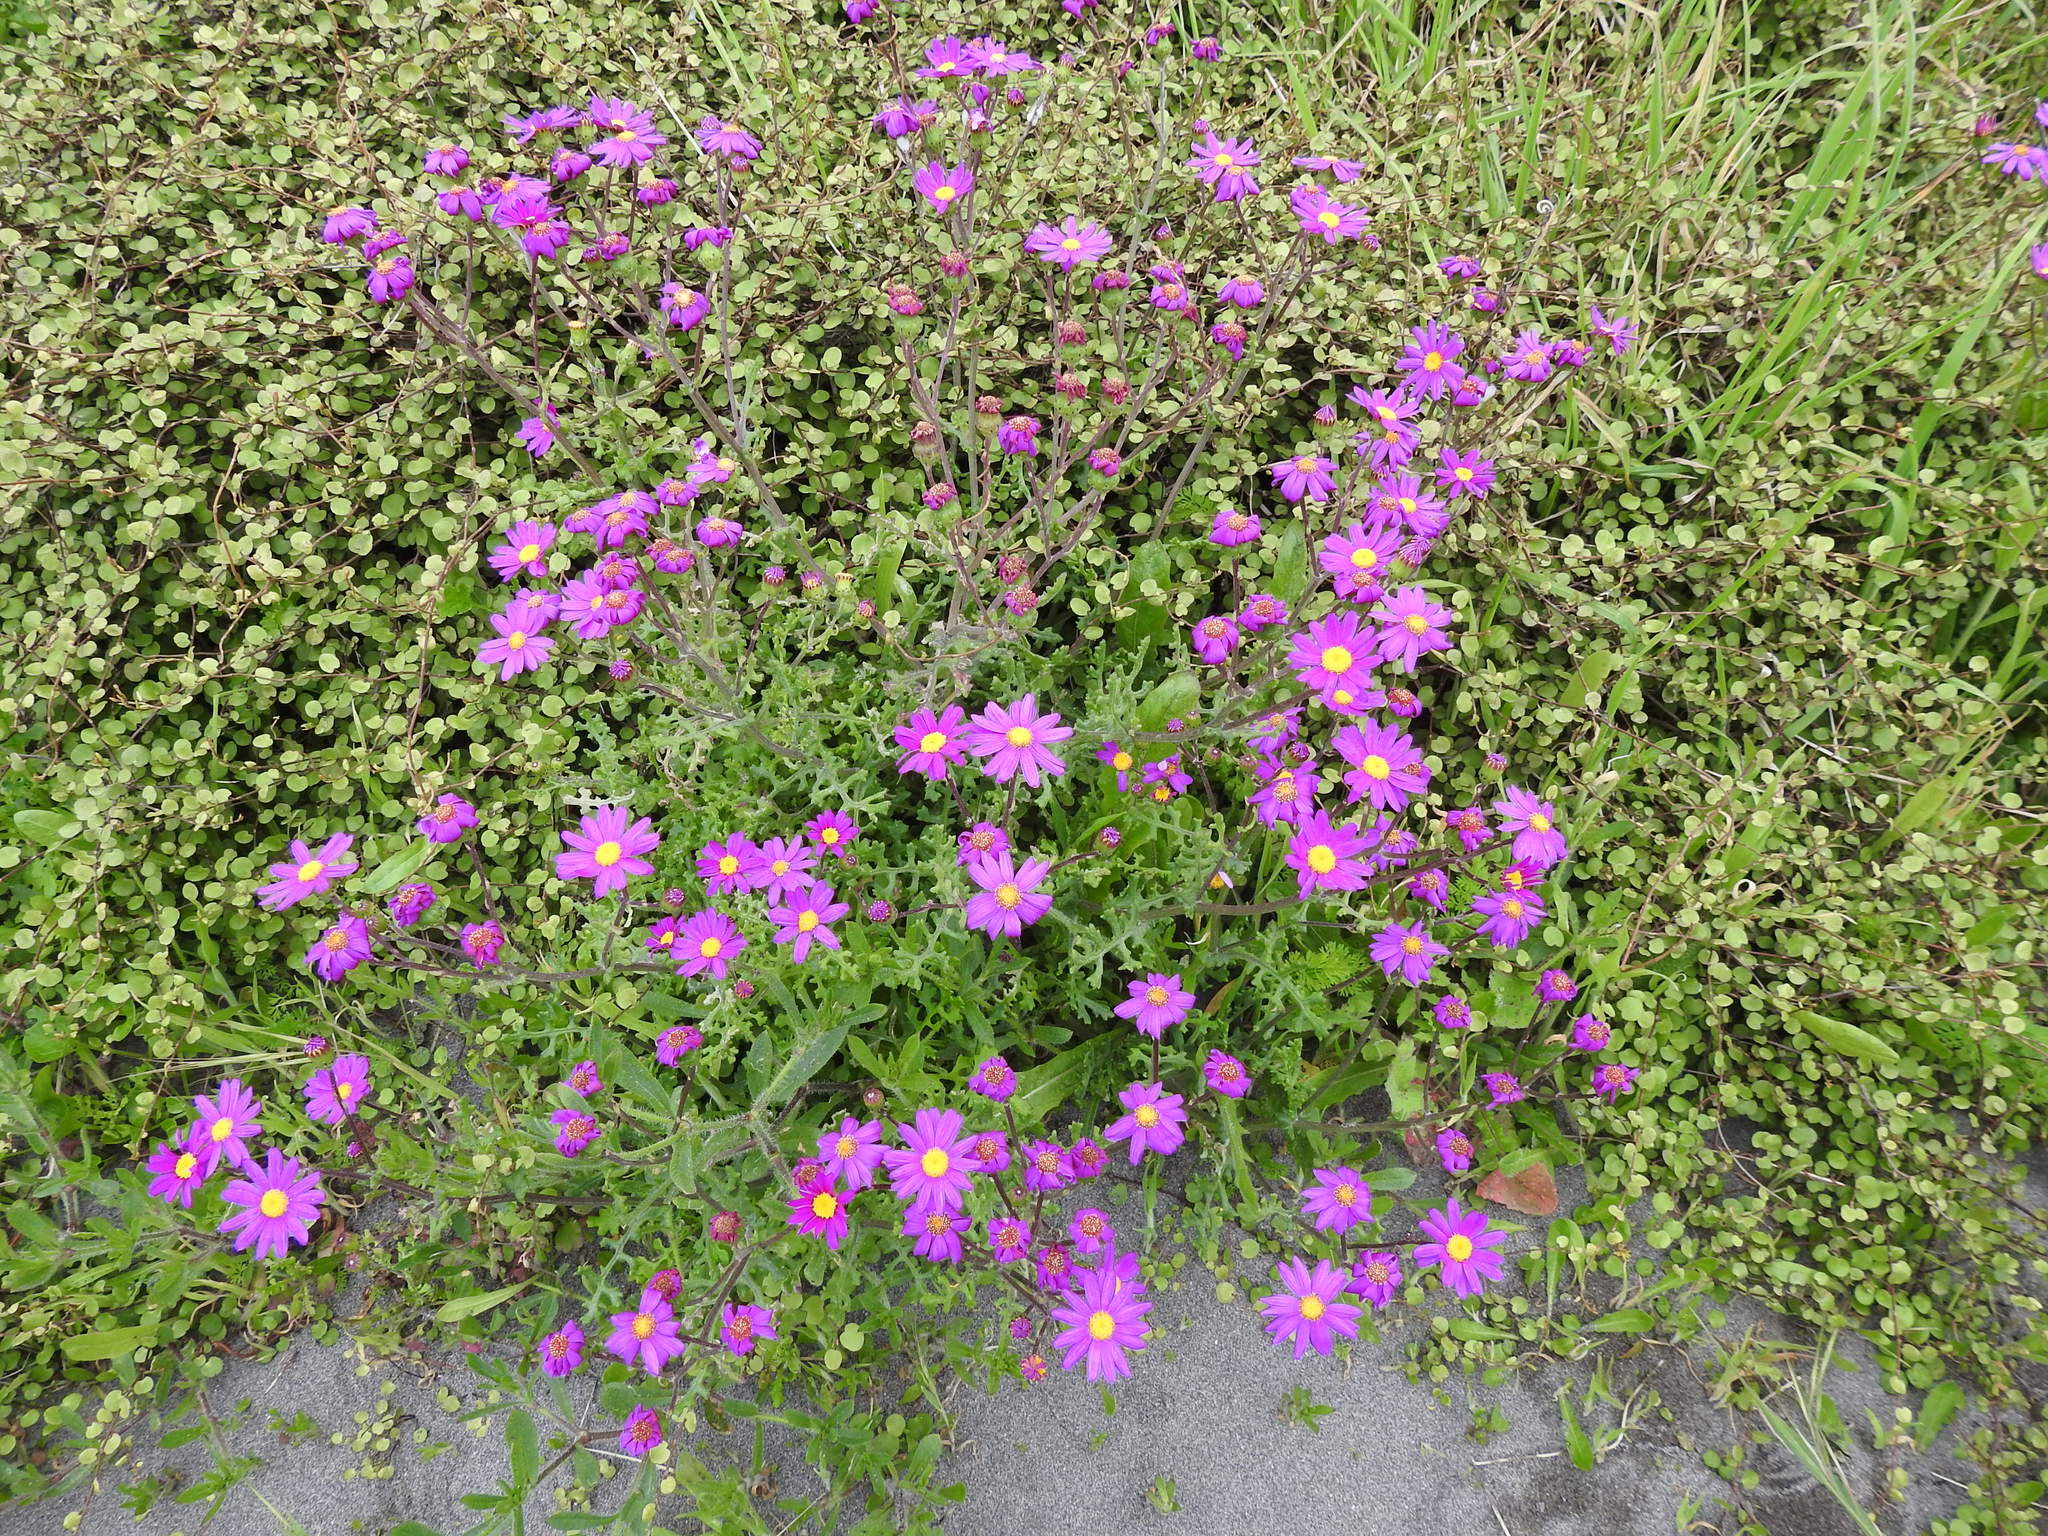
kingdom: Plantae
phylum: Tracheophyta
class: Magnoliopsida
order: Asterales
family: Asteraceae
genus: Senecio
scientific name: Senecio elegans
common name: Purple groundsel
